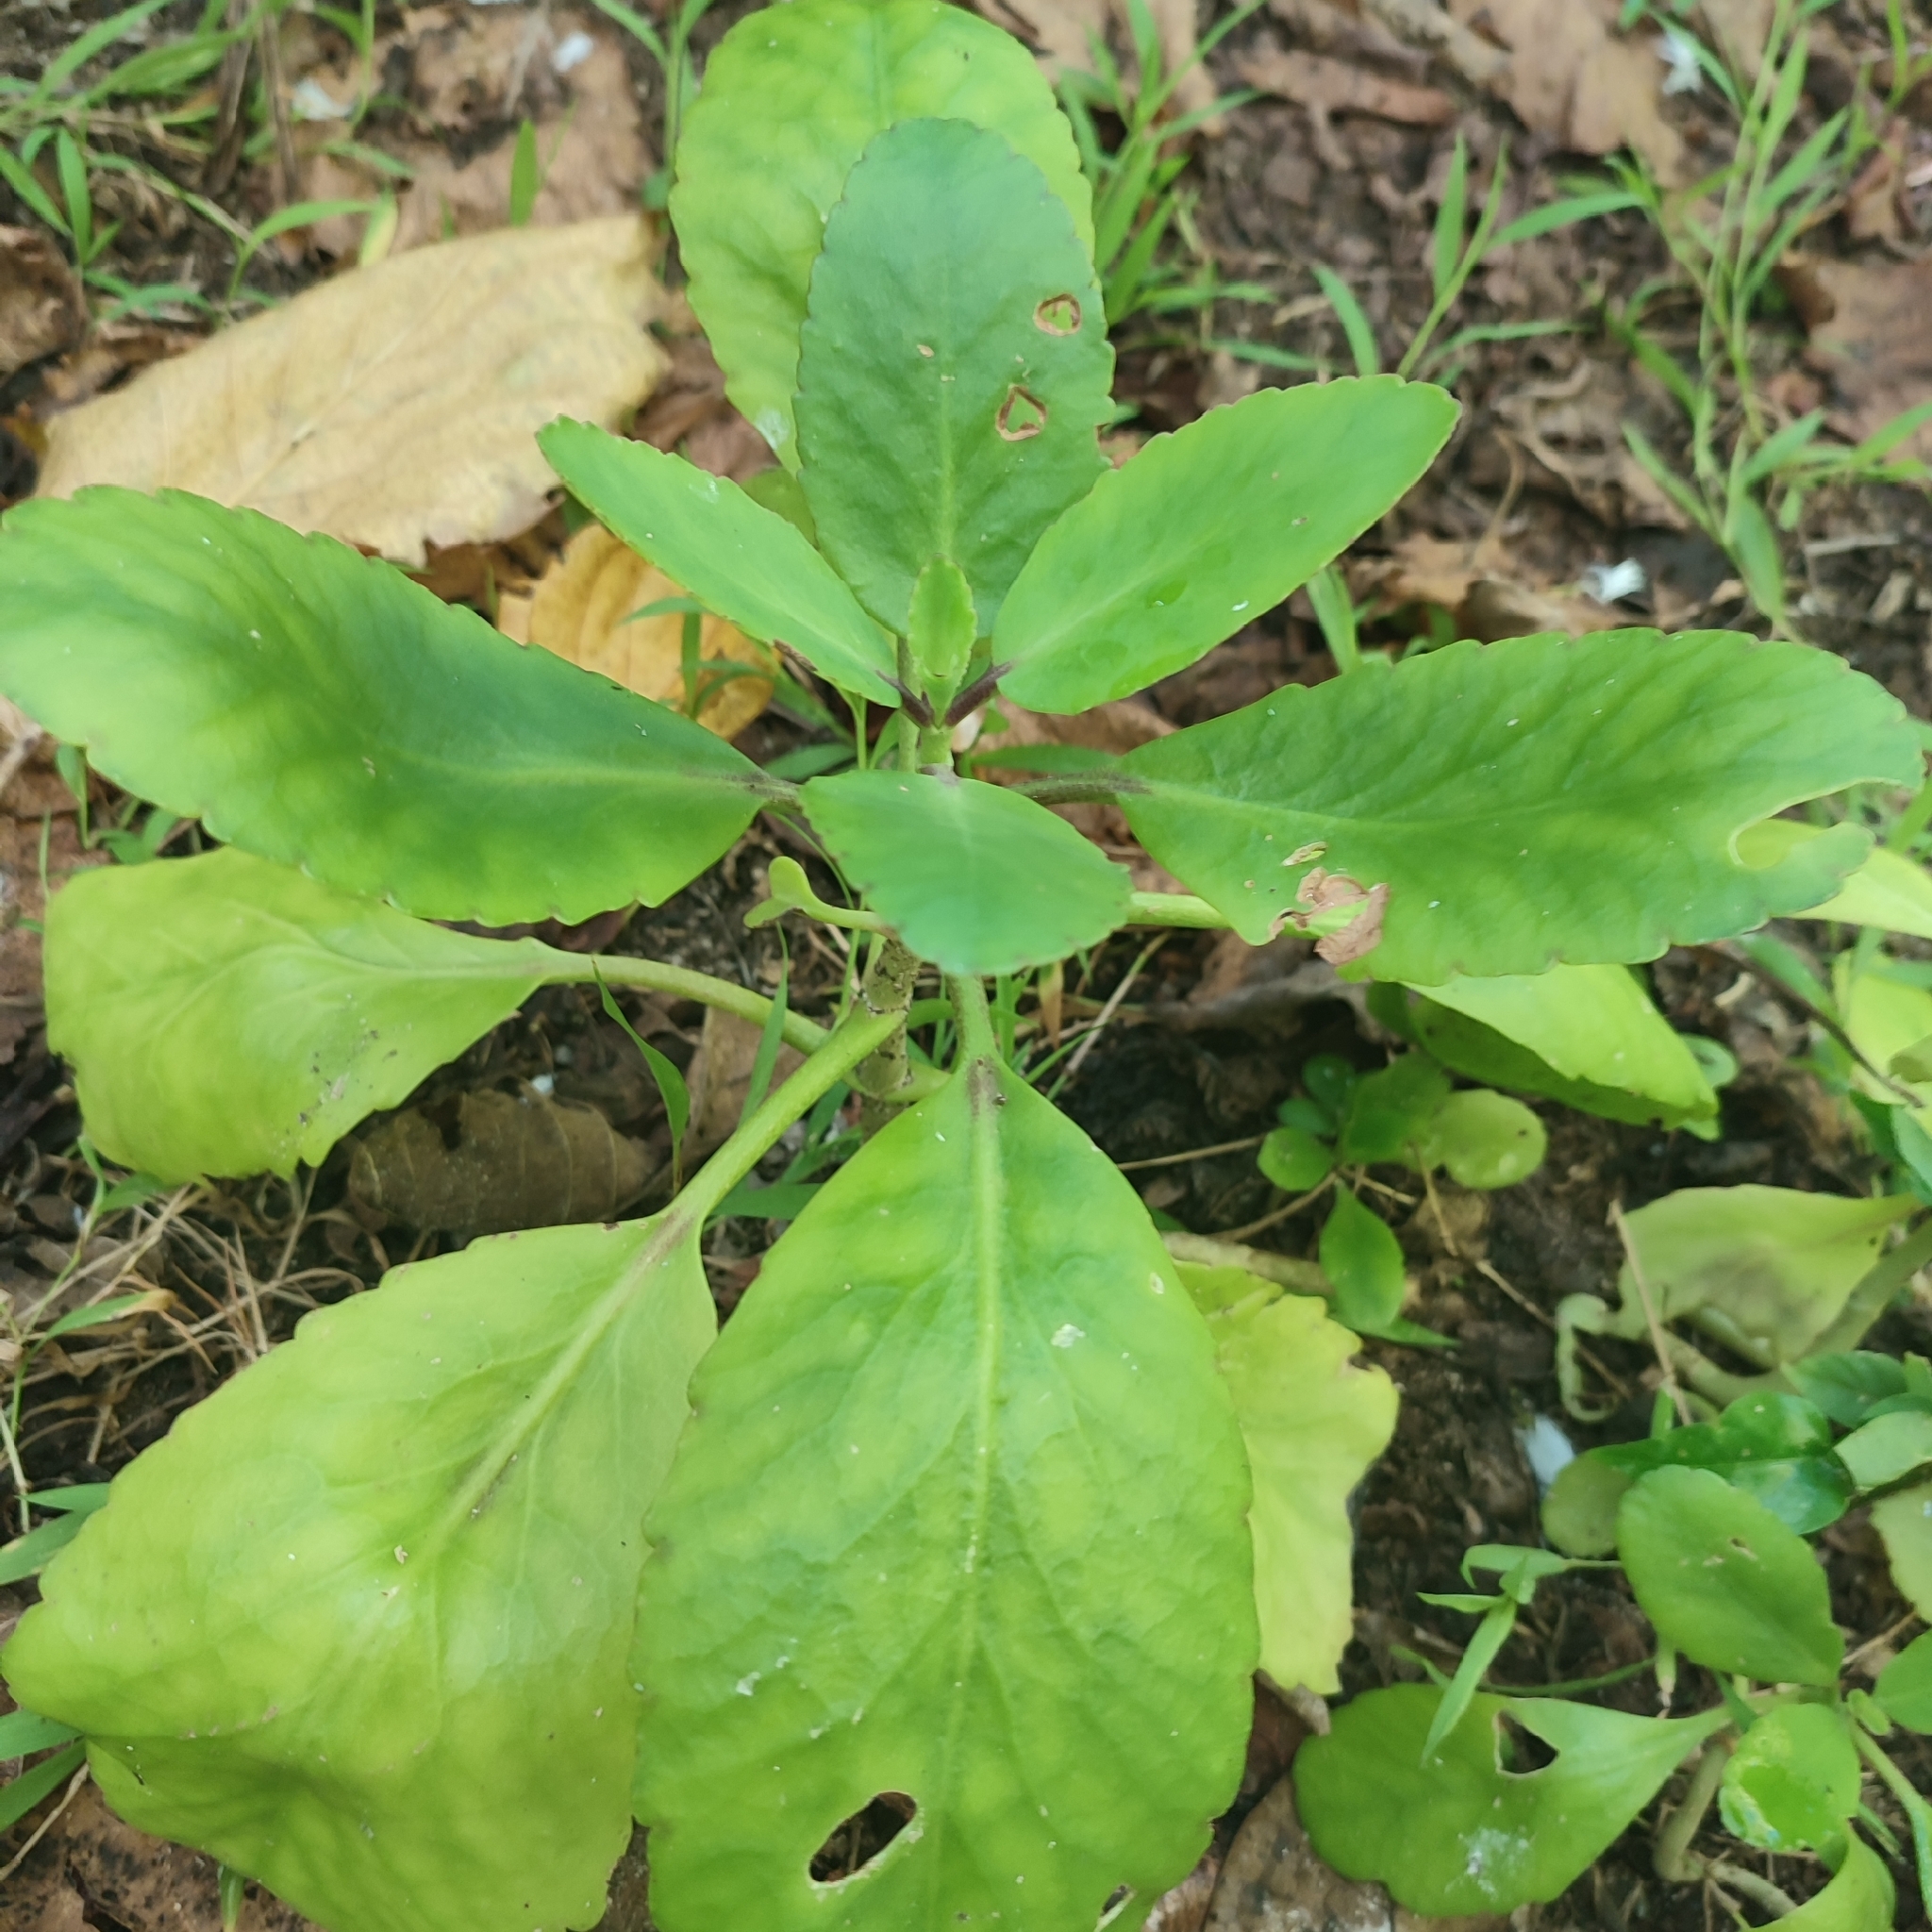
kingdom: Plantae
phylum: Tracheophyta
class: Magnoliopsida
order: Saxifragales
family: Crassulaceae
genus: Kalanchoe
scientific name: Kalanchoe pinnata
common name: Cathedral bells
